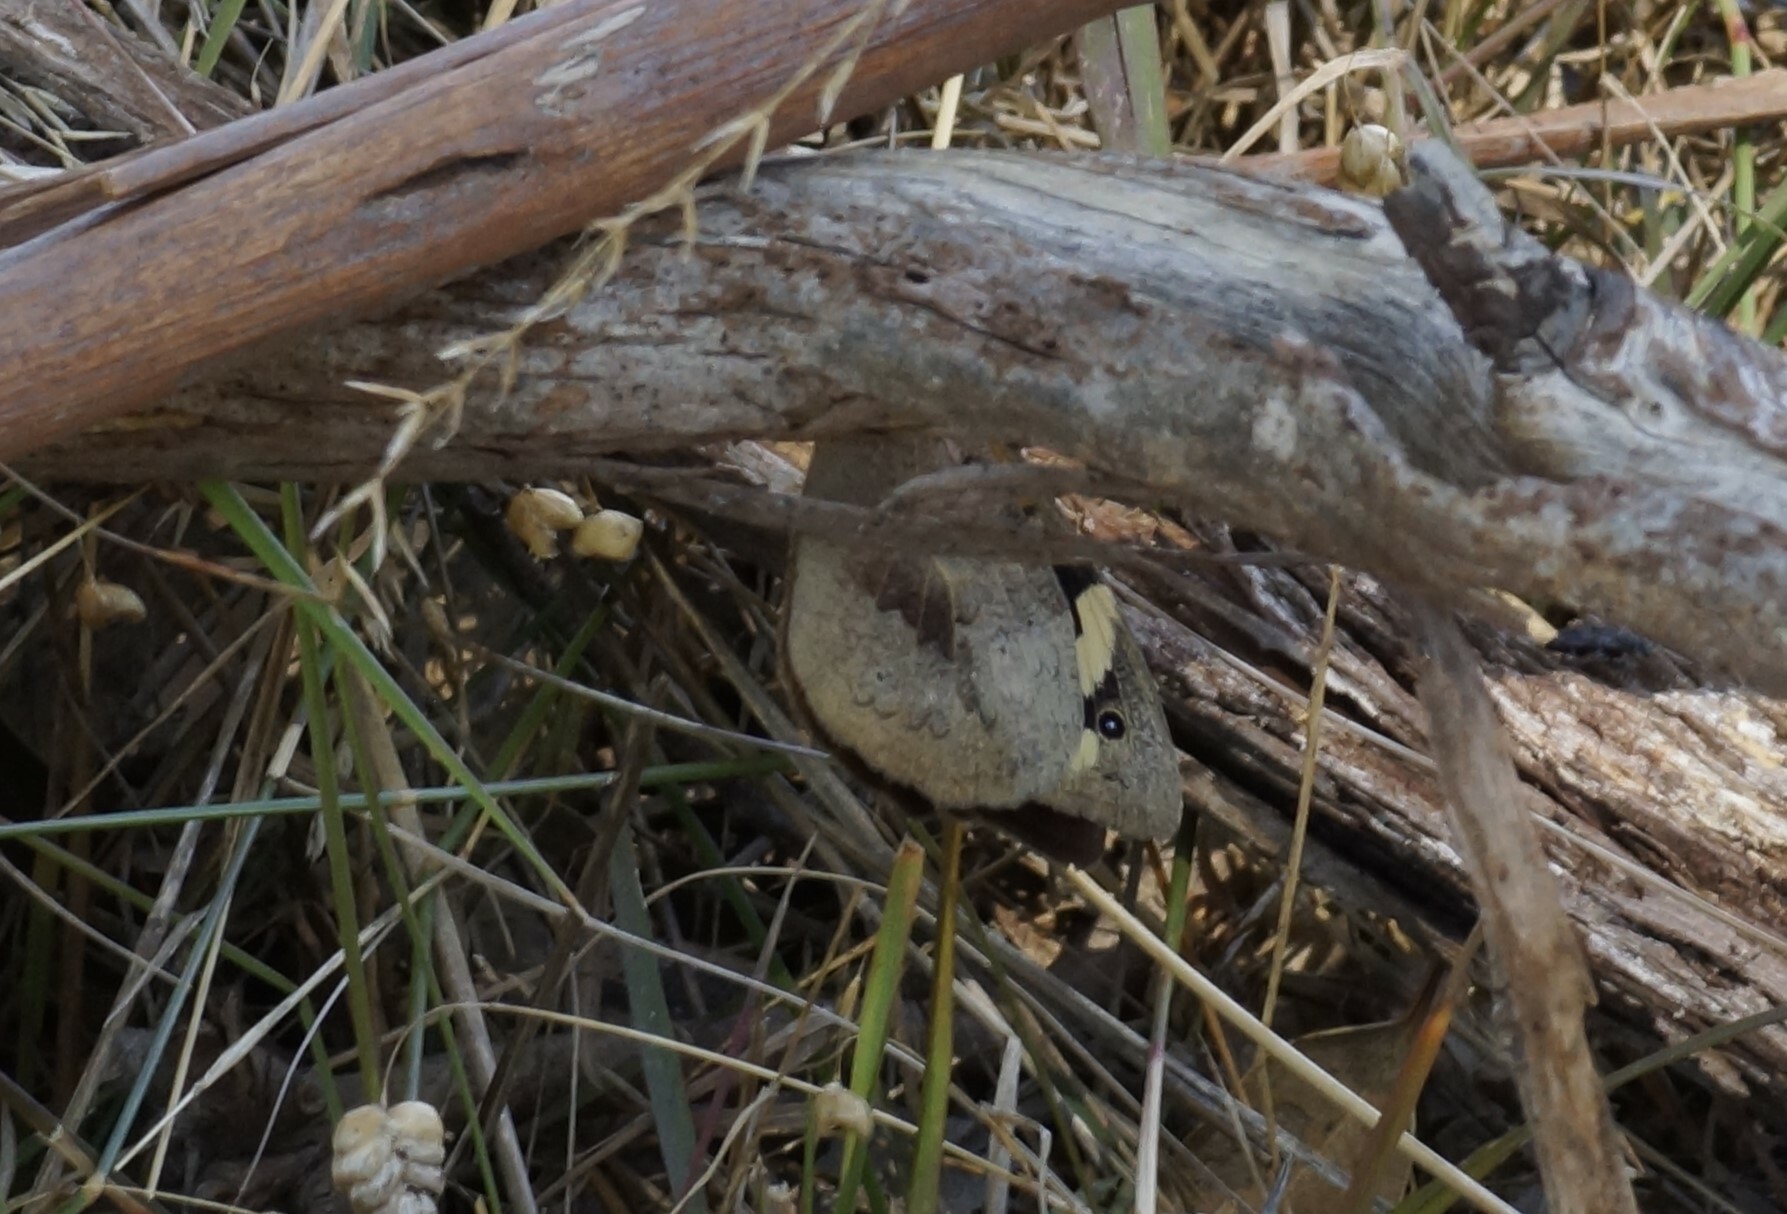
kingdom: Animalia
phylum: Arthropoda
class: Insecta
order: Lepidoptera
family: Nymphalidae
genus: Geitoneura
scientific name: Geitoneura klugii
